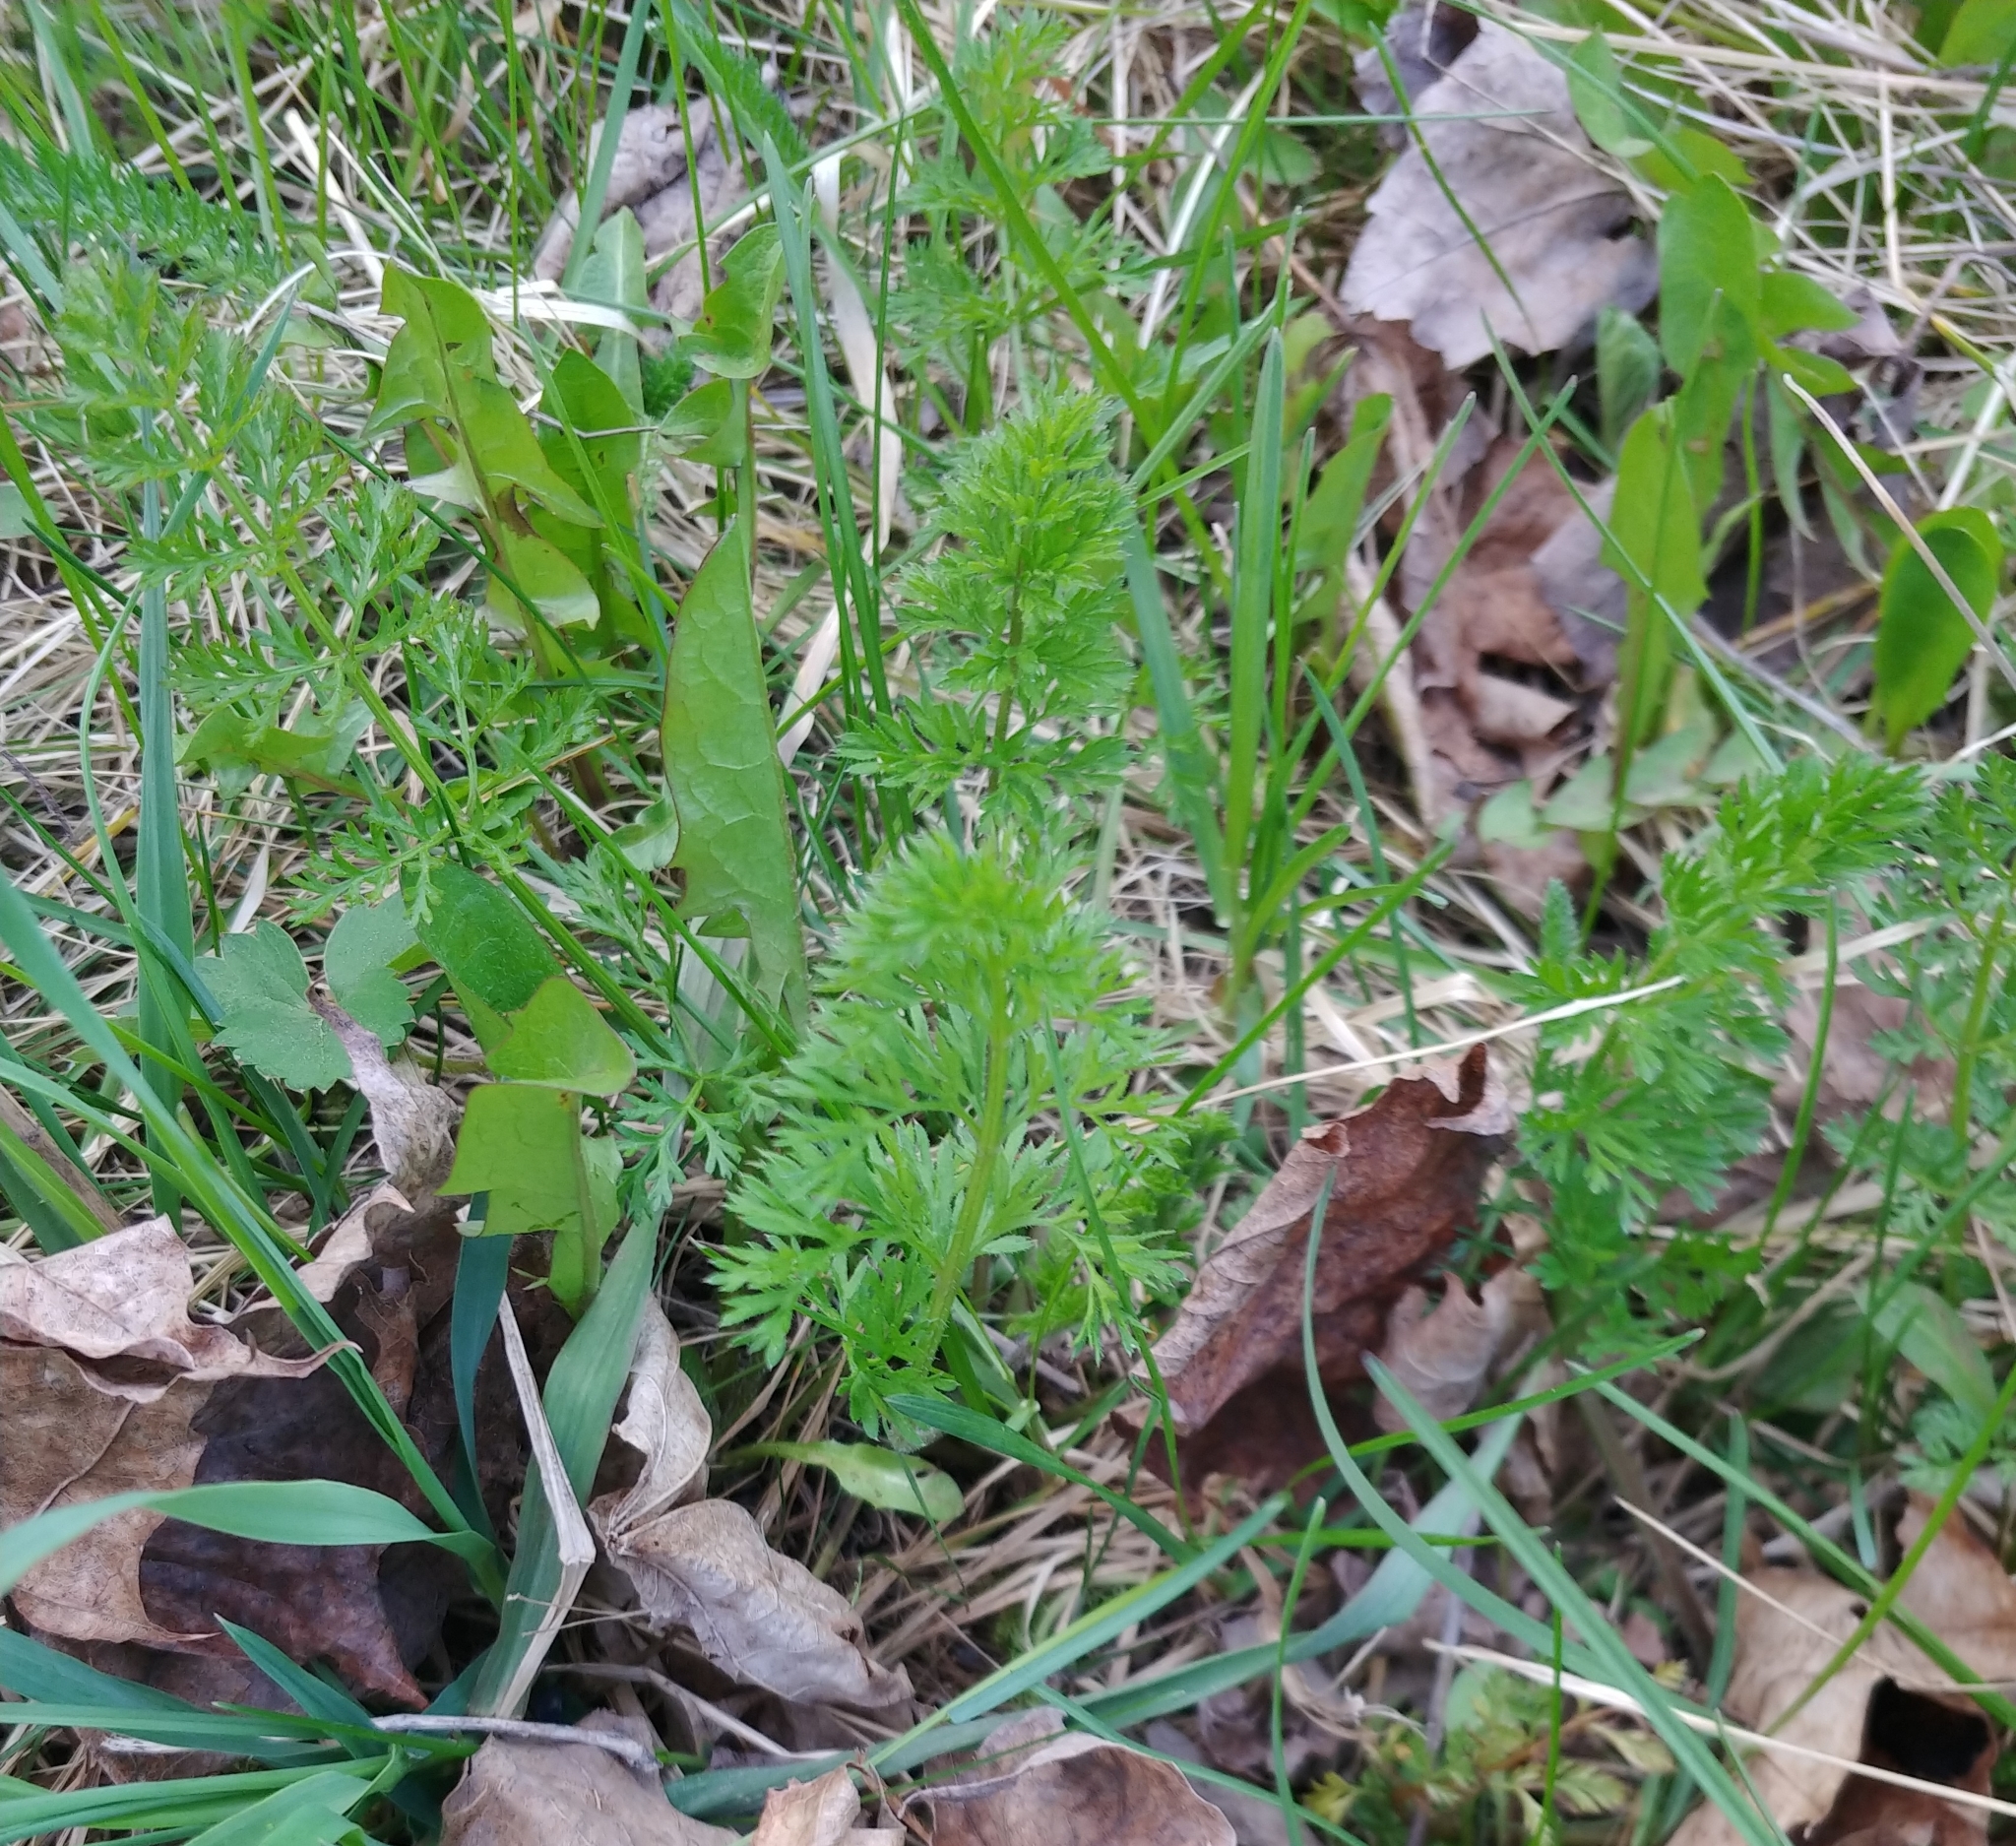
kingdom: Plantae
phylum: Tracheophyta
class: Magnoliopsida
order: Apiales
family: Apiaceae
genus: Daucus
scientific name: Daucus carota
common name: Wild carrot
